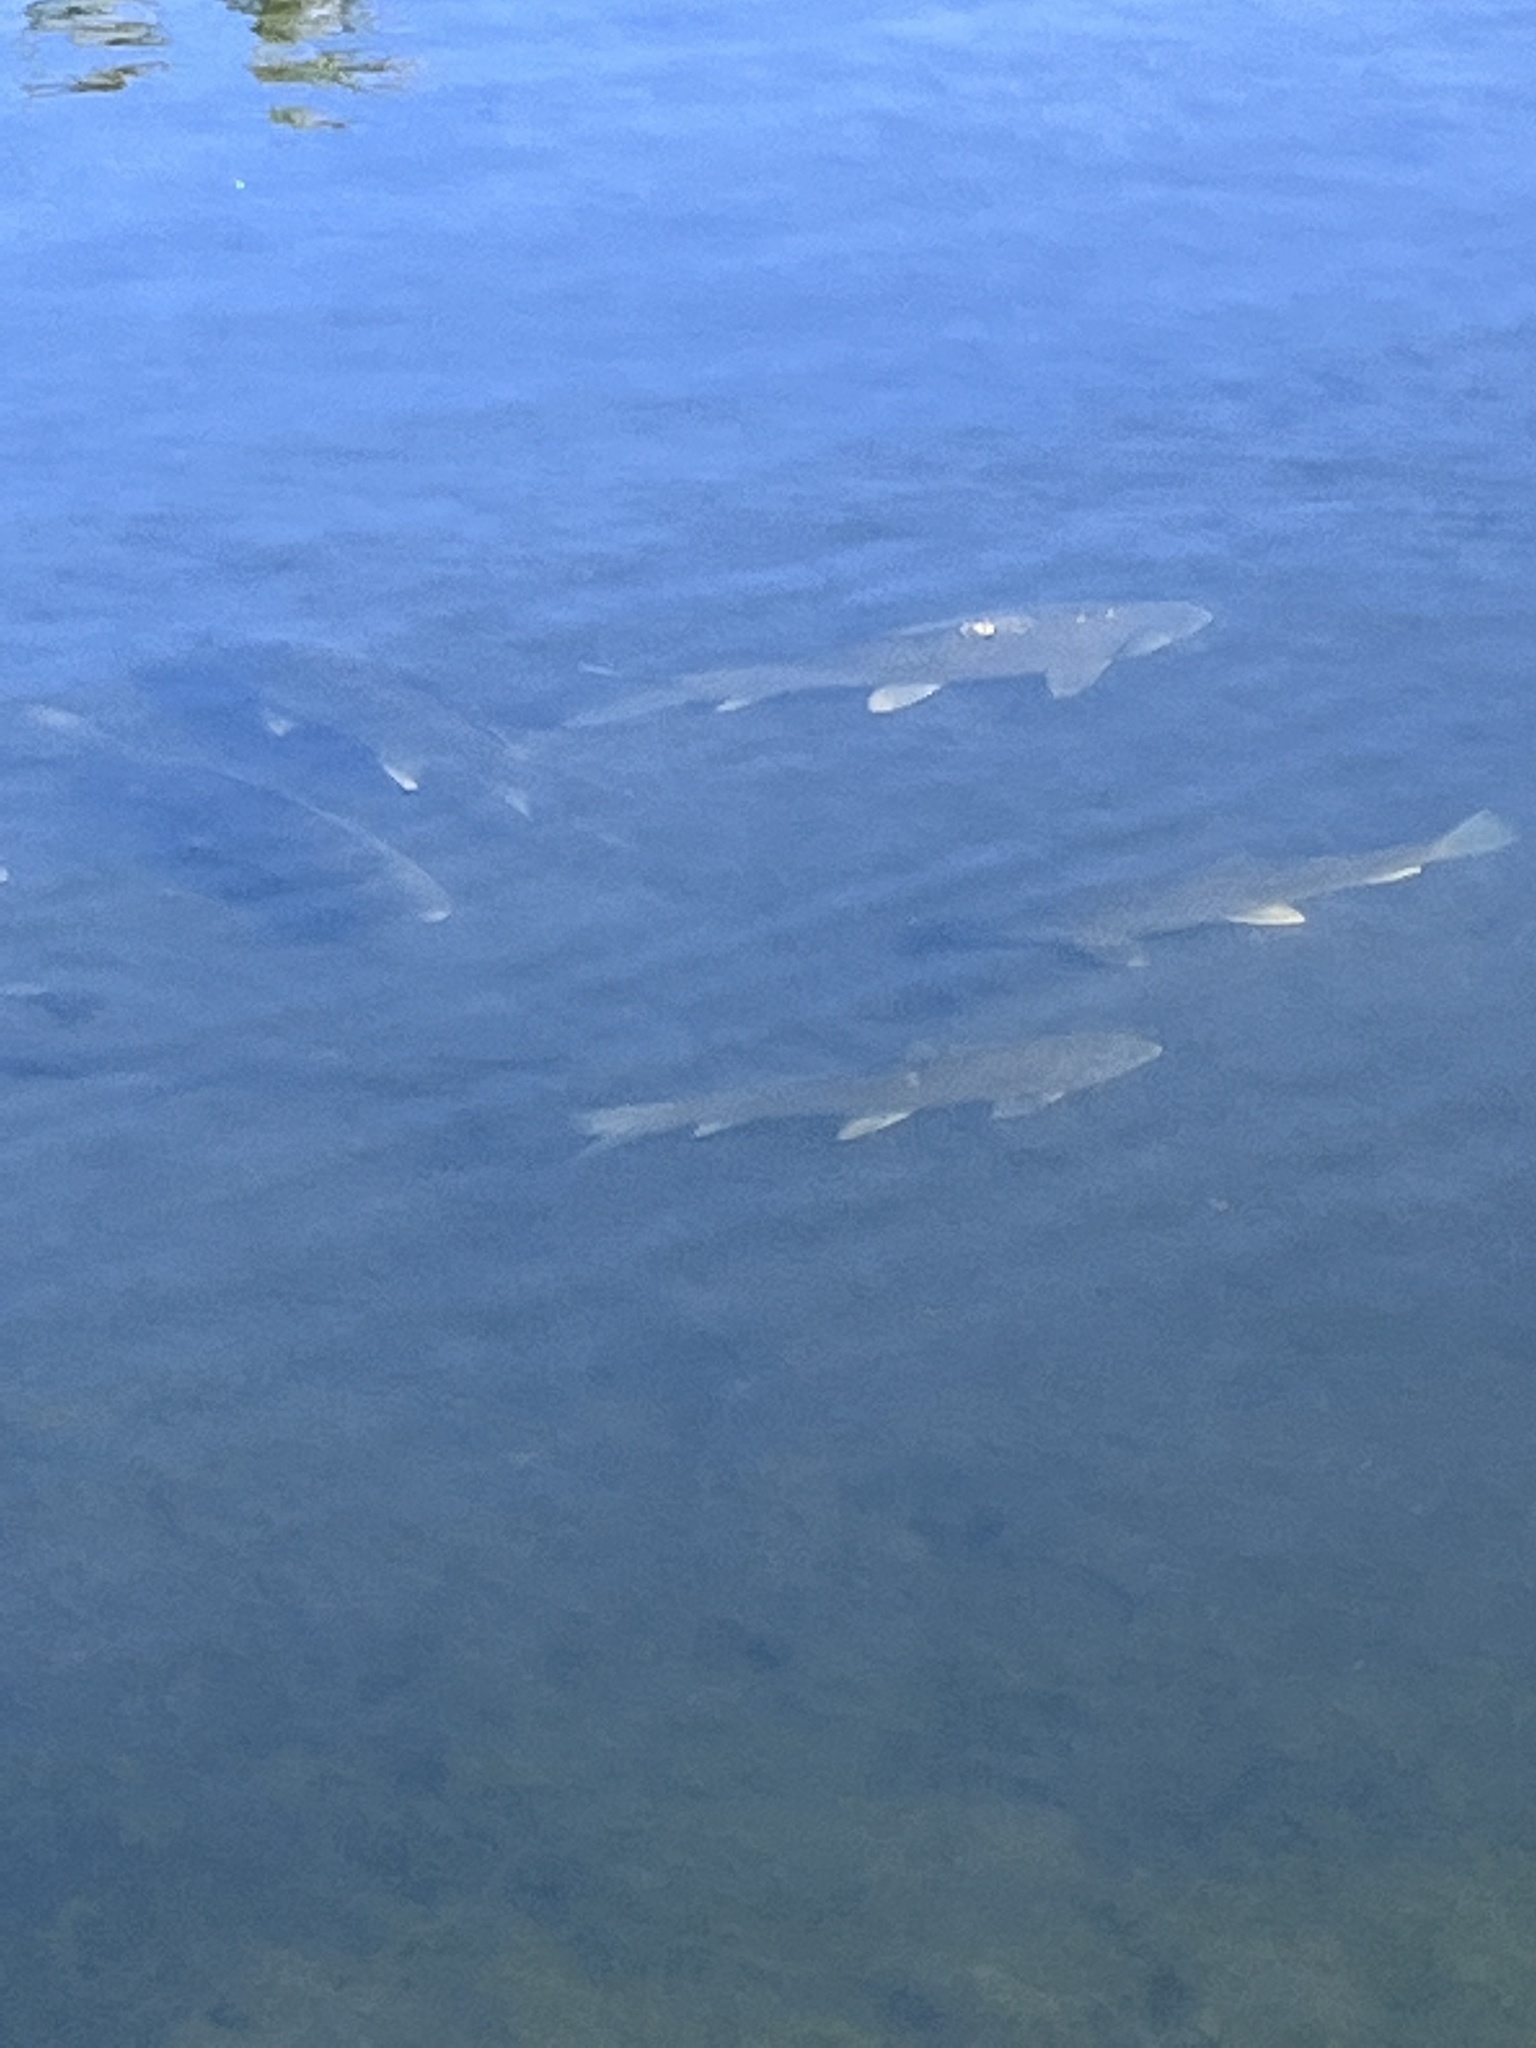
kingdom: Animalia
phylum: Chordata
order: Cypriniformes
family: Catostomidae
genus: Carpiodes
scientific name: Carpiodes carpio
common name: River carpsucker
